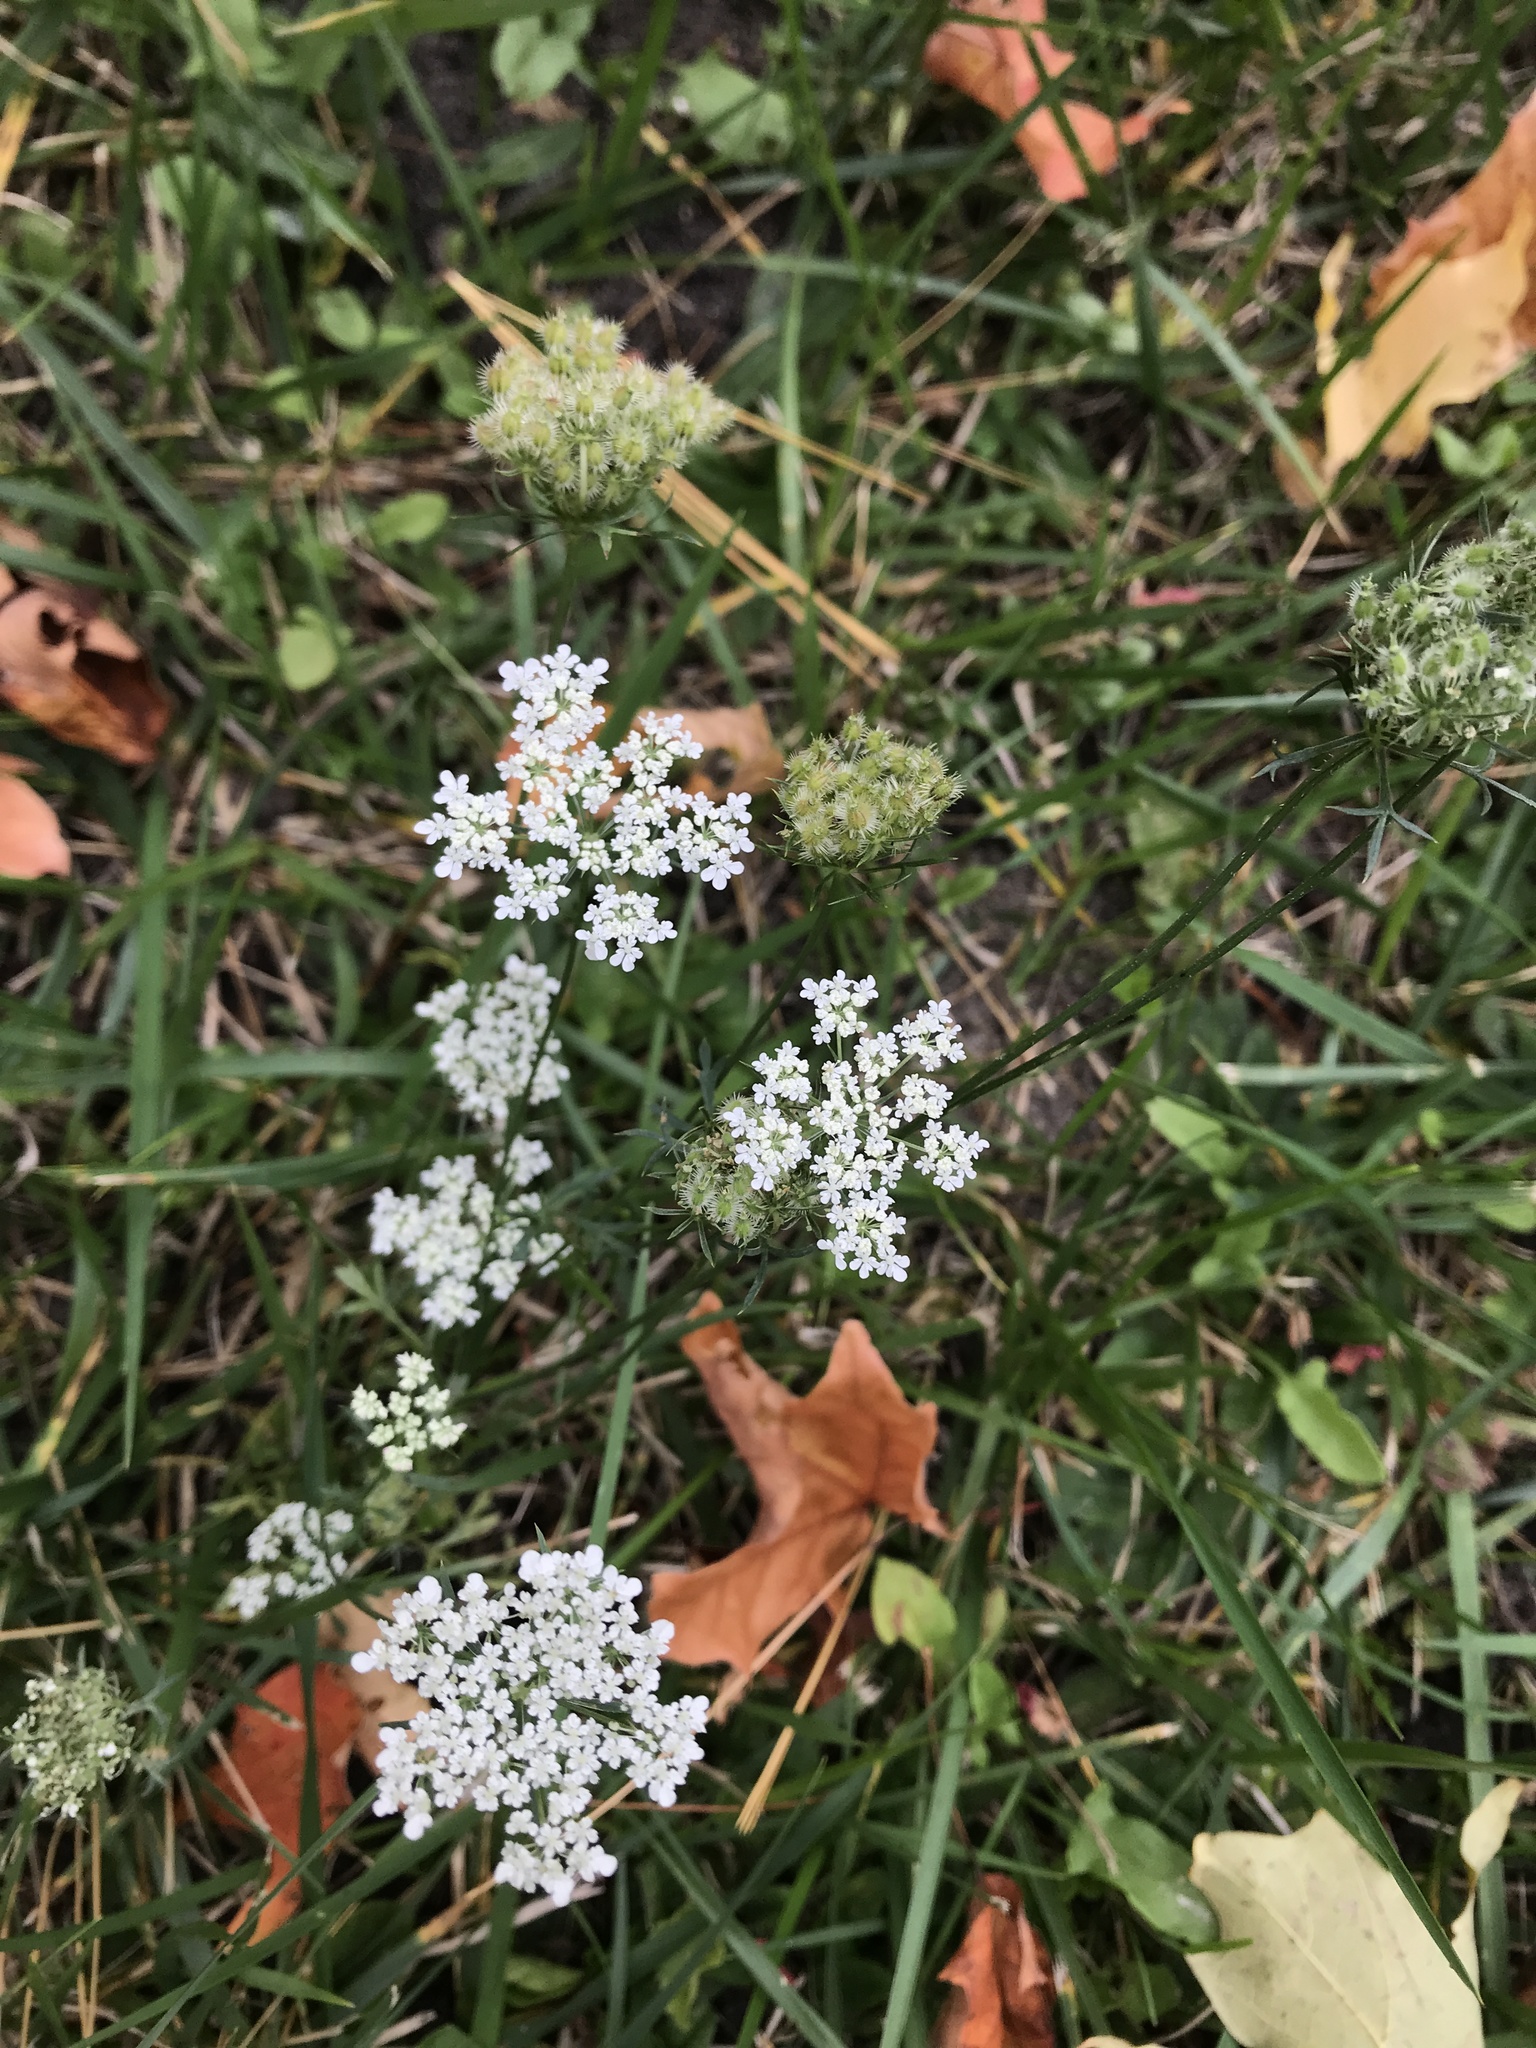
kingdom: Plantae
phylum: Tracheophyta
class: Magnoliopsida
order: Apiales
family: Apiaceae
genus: Daucus
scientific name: Daucus carota
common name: Wild carrot
